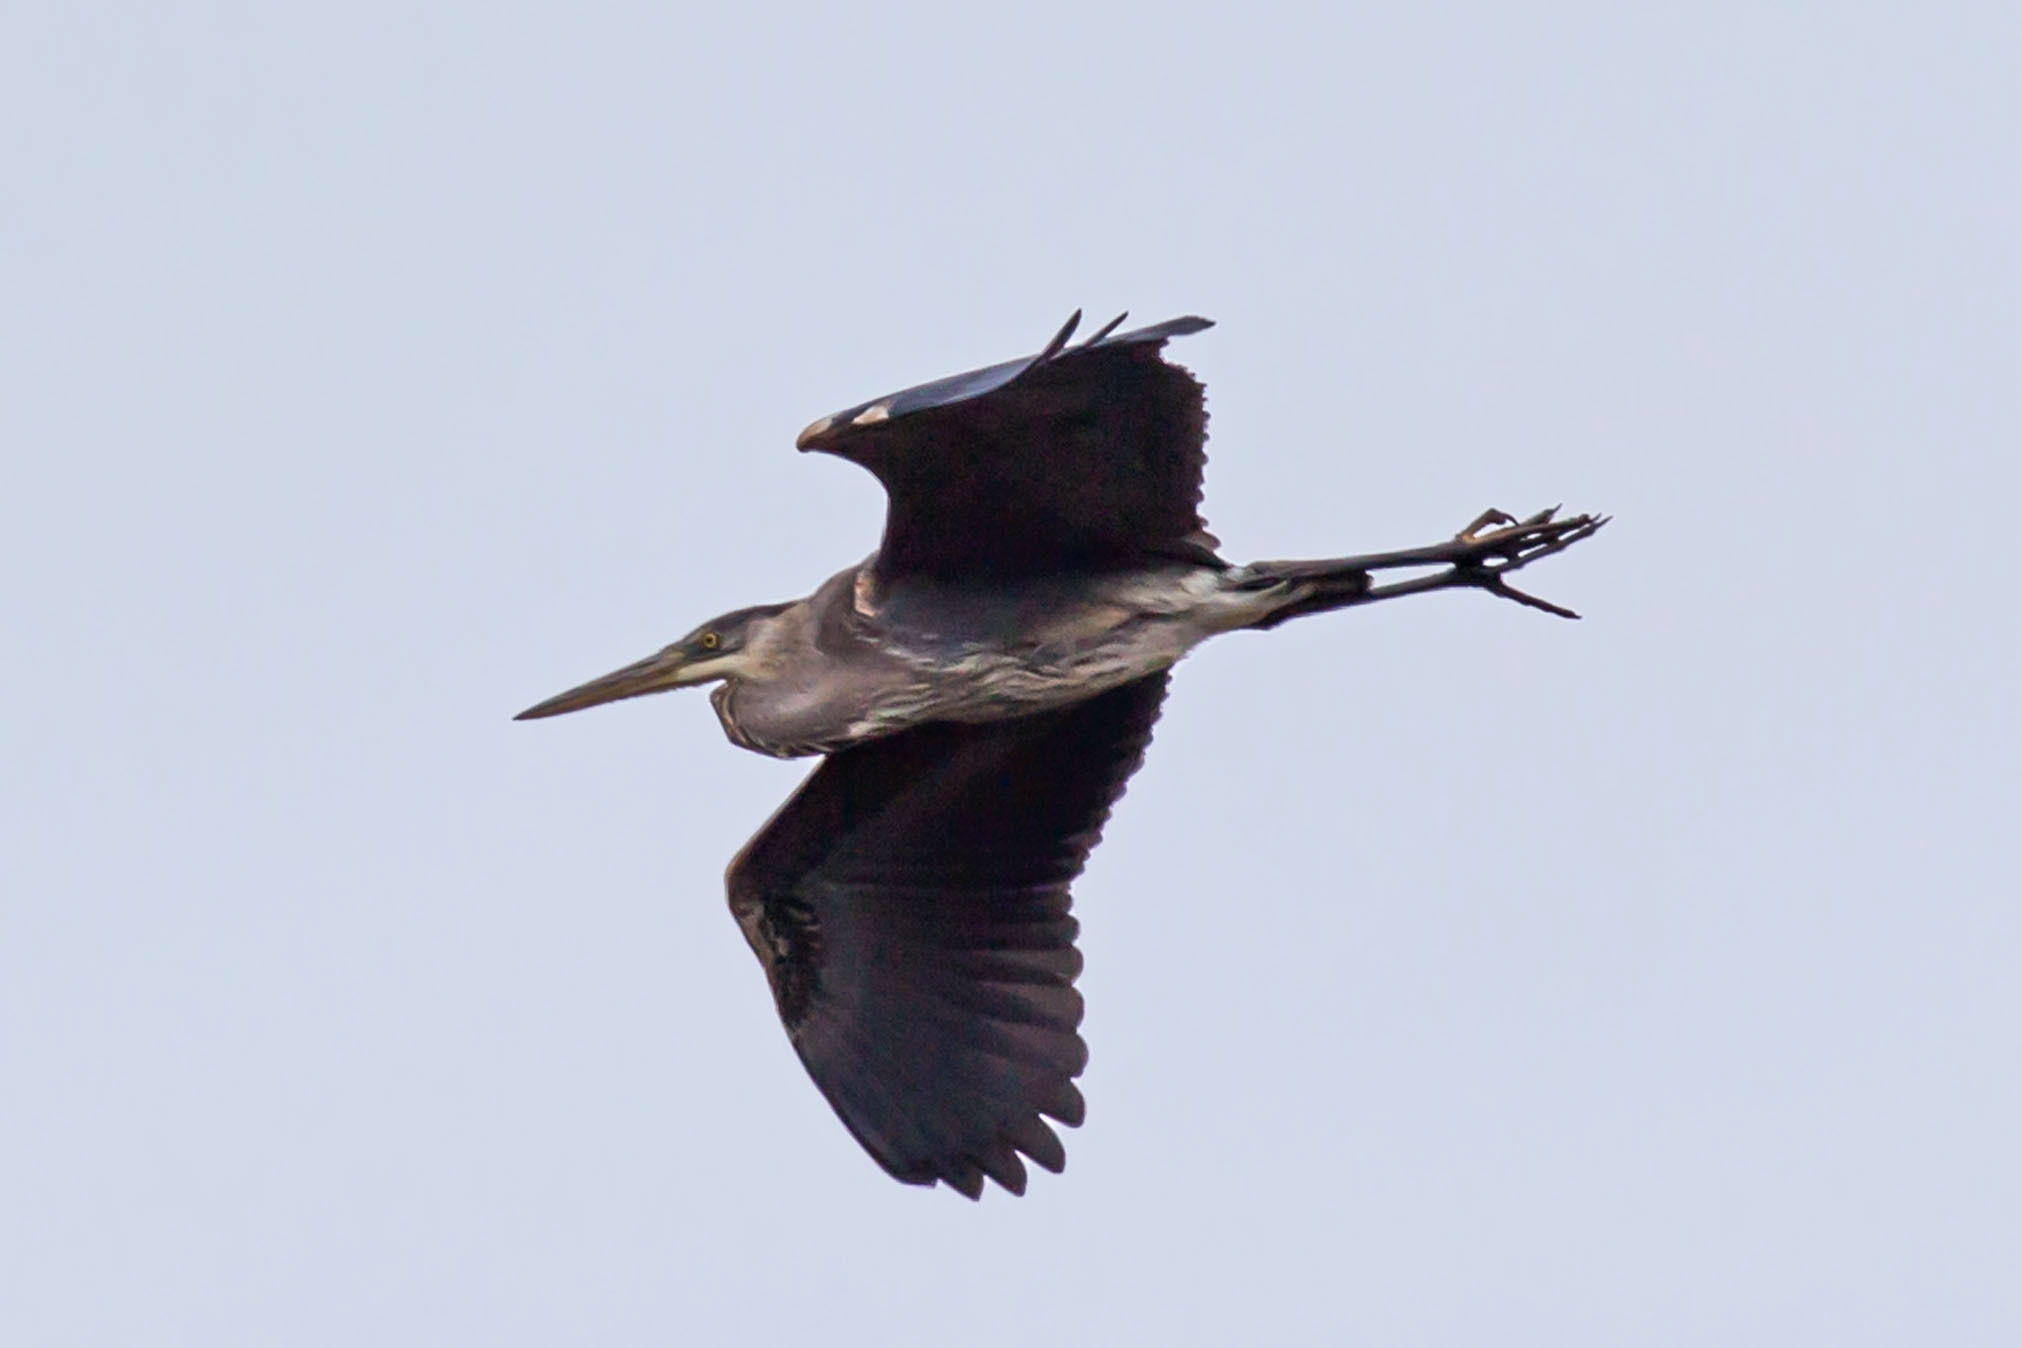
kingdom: Animalia
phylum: Chordata
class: Aves
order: Pelecaniformes
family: Ardeidae
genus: Ardea
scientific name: Ardea herodias
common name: Great blue heron
